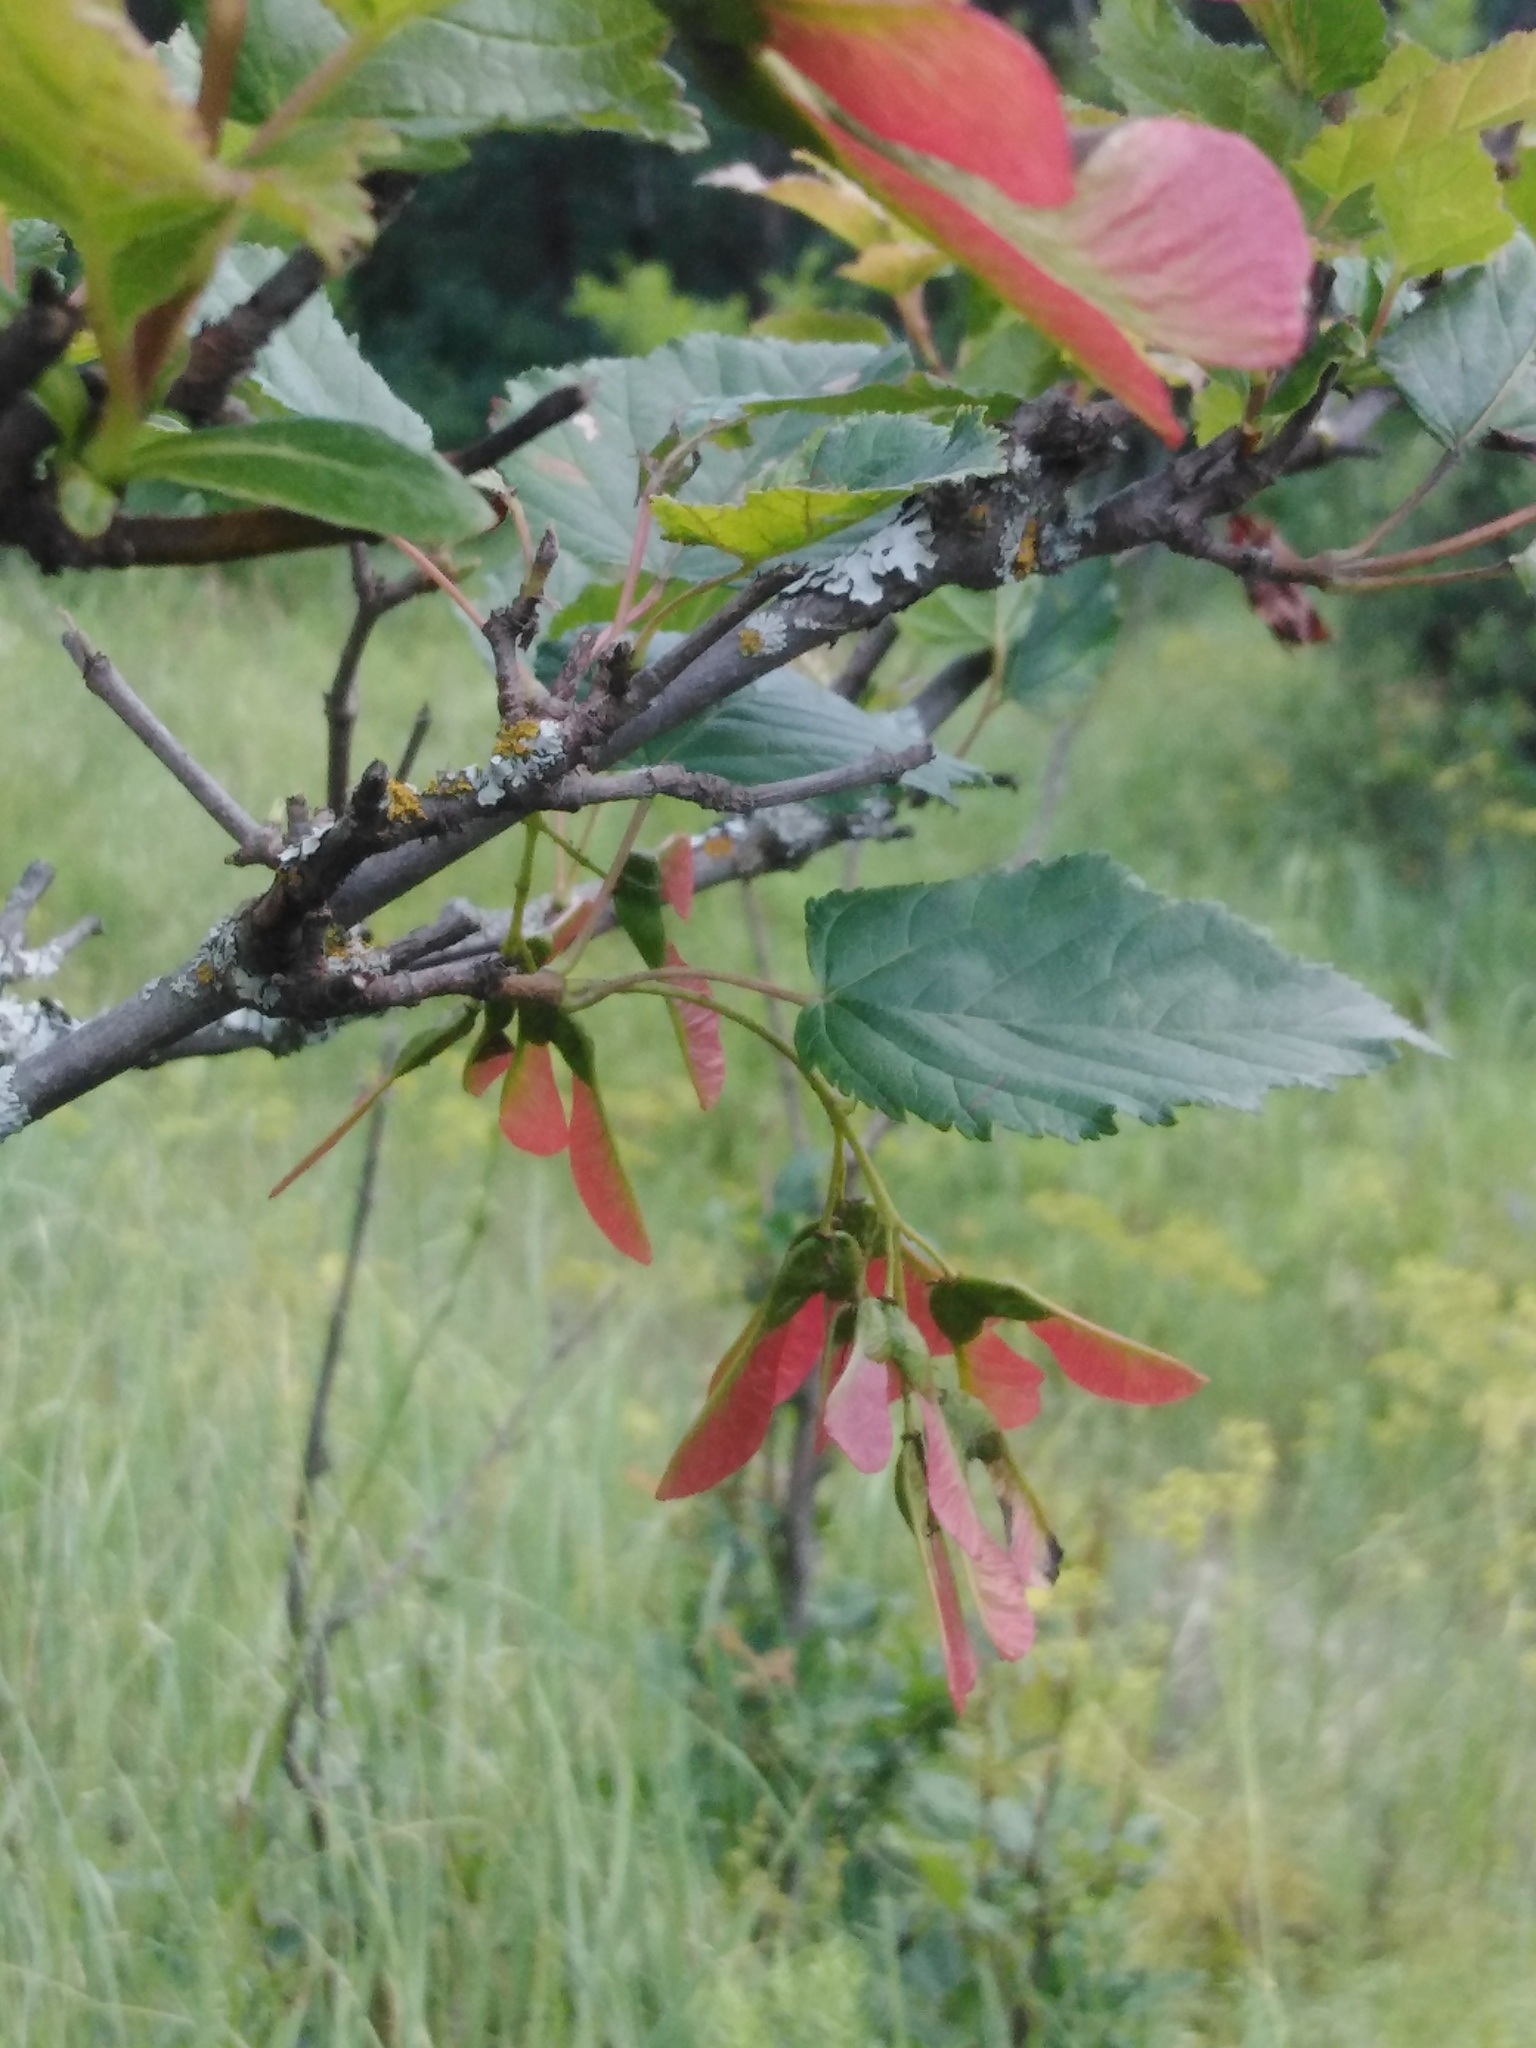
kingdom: Plantae
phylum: Tracheophyta
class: Magnoliopsida
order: Sapindales
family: Sapindaceae
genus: Acer
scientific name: Acer tataricum
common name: Tartar maple
